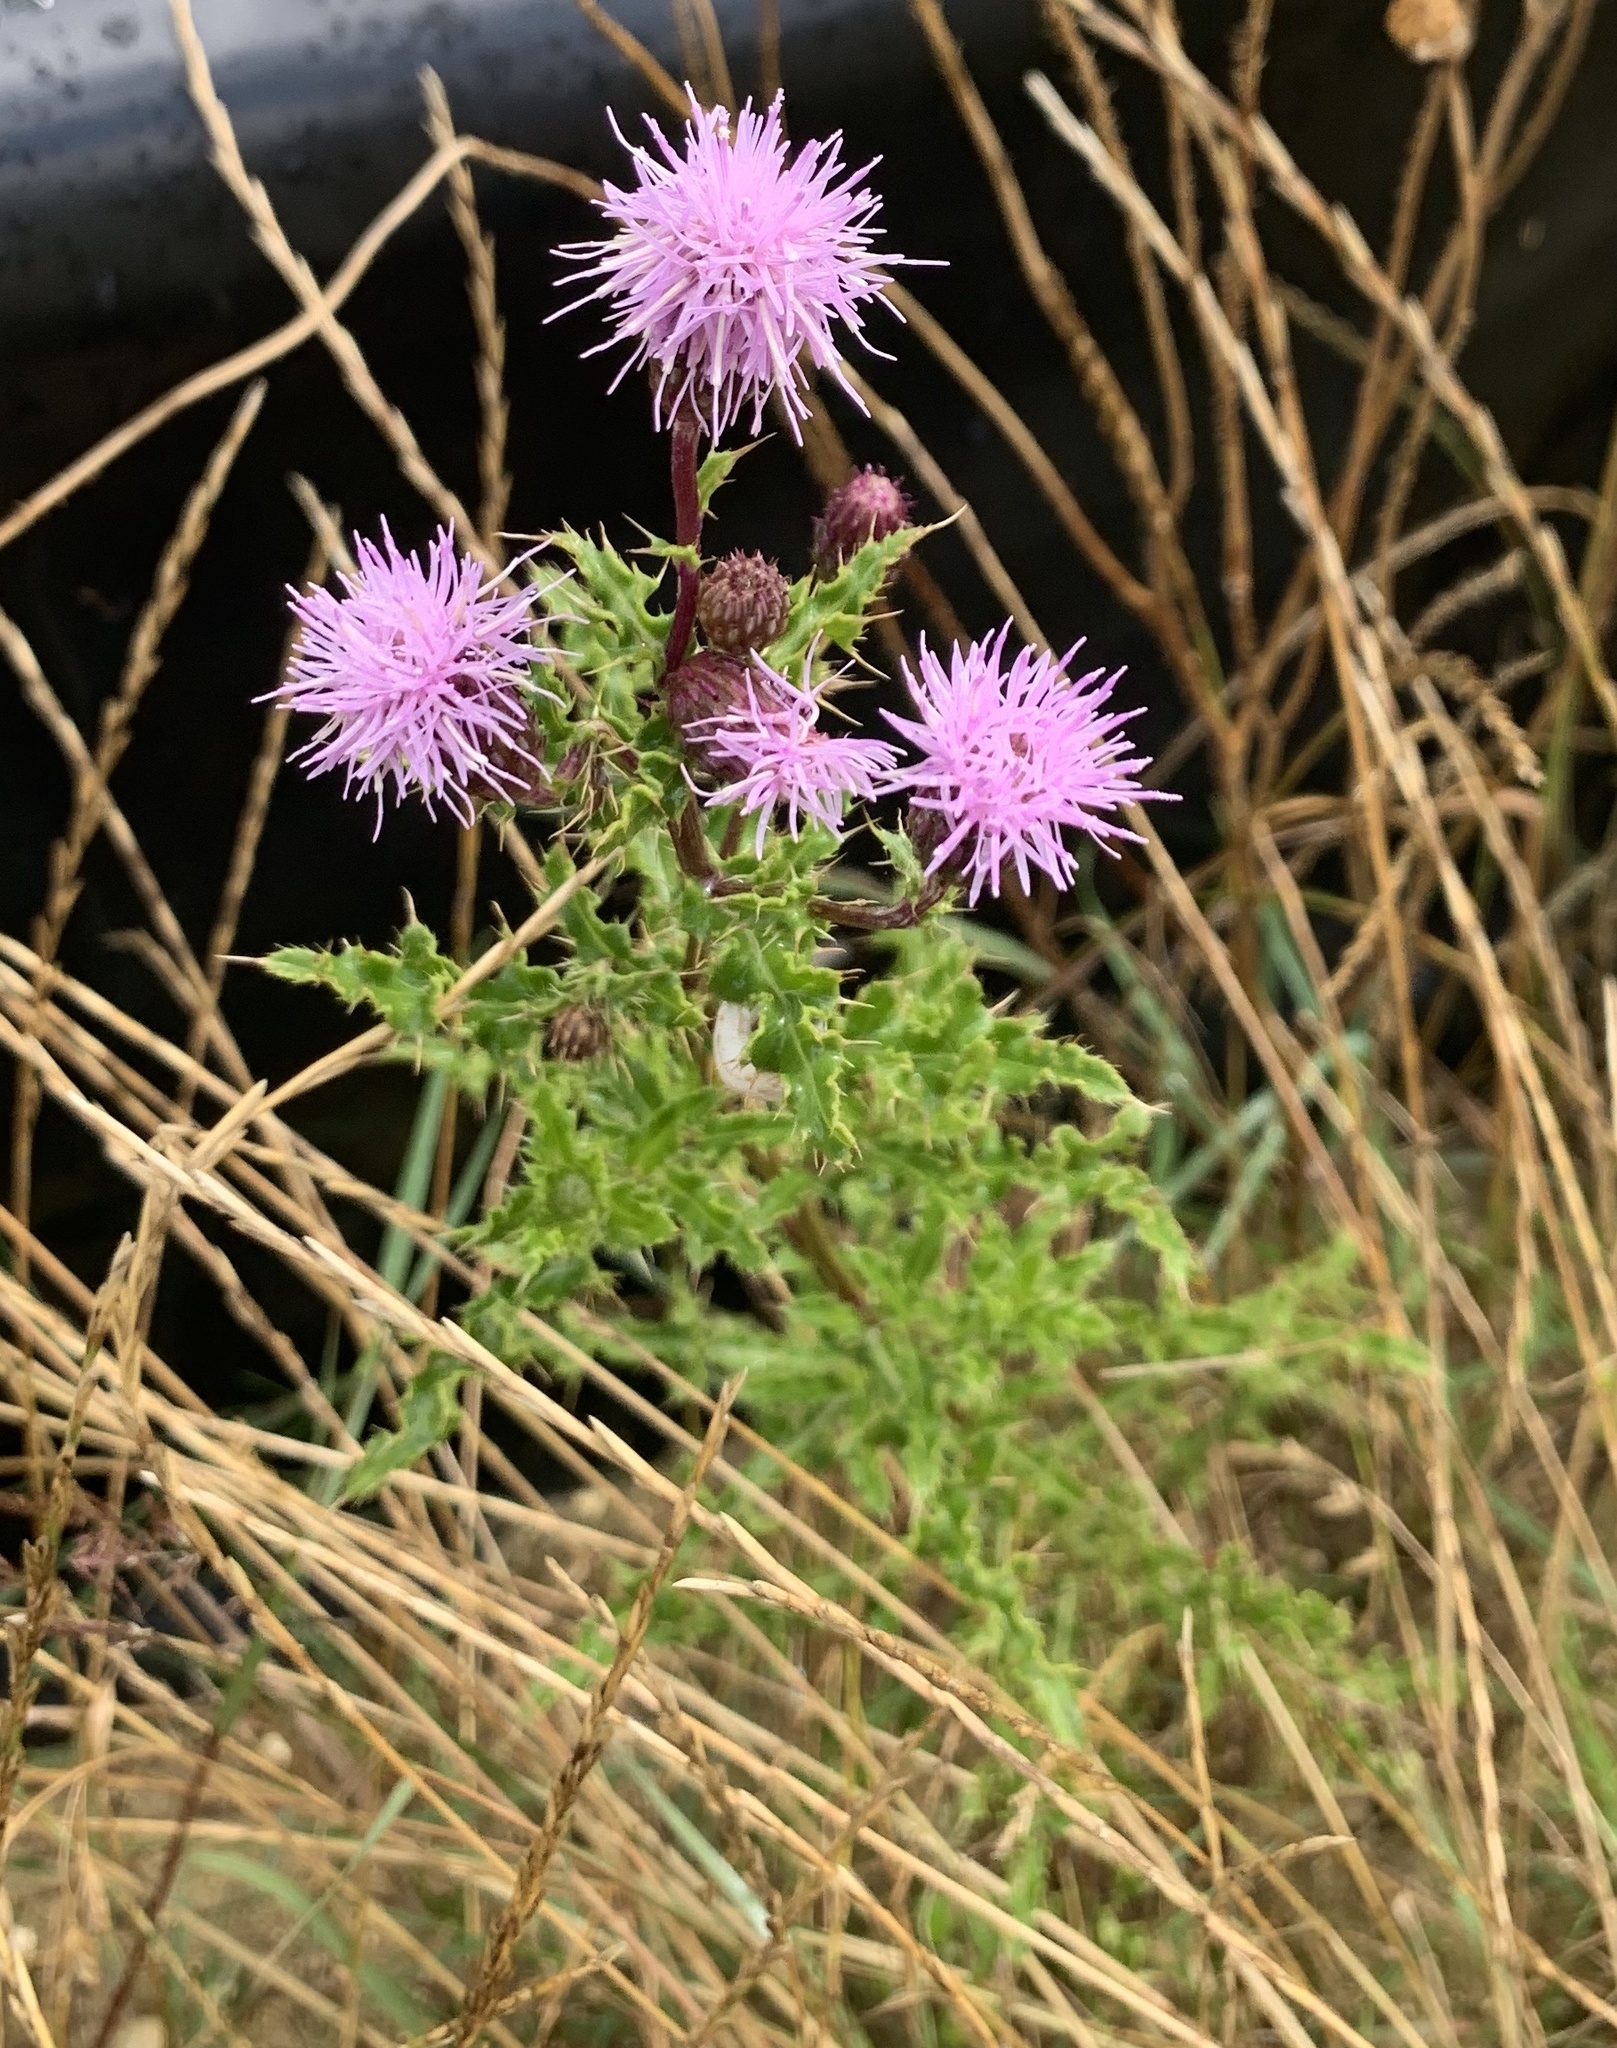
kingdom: Plantae
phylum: Tracheophyta
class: Magnoliopsida
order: Asterales
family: Asteraceae
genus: Cirsium
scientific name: Cirsium arvense
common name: Creeping thistle
